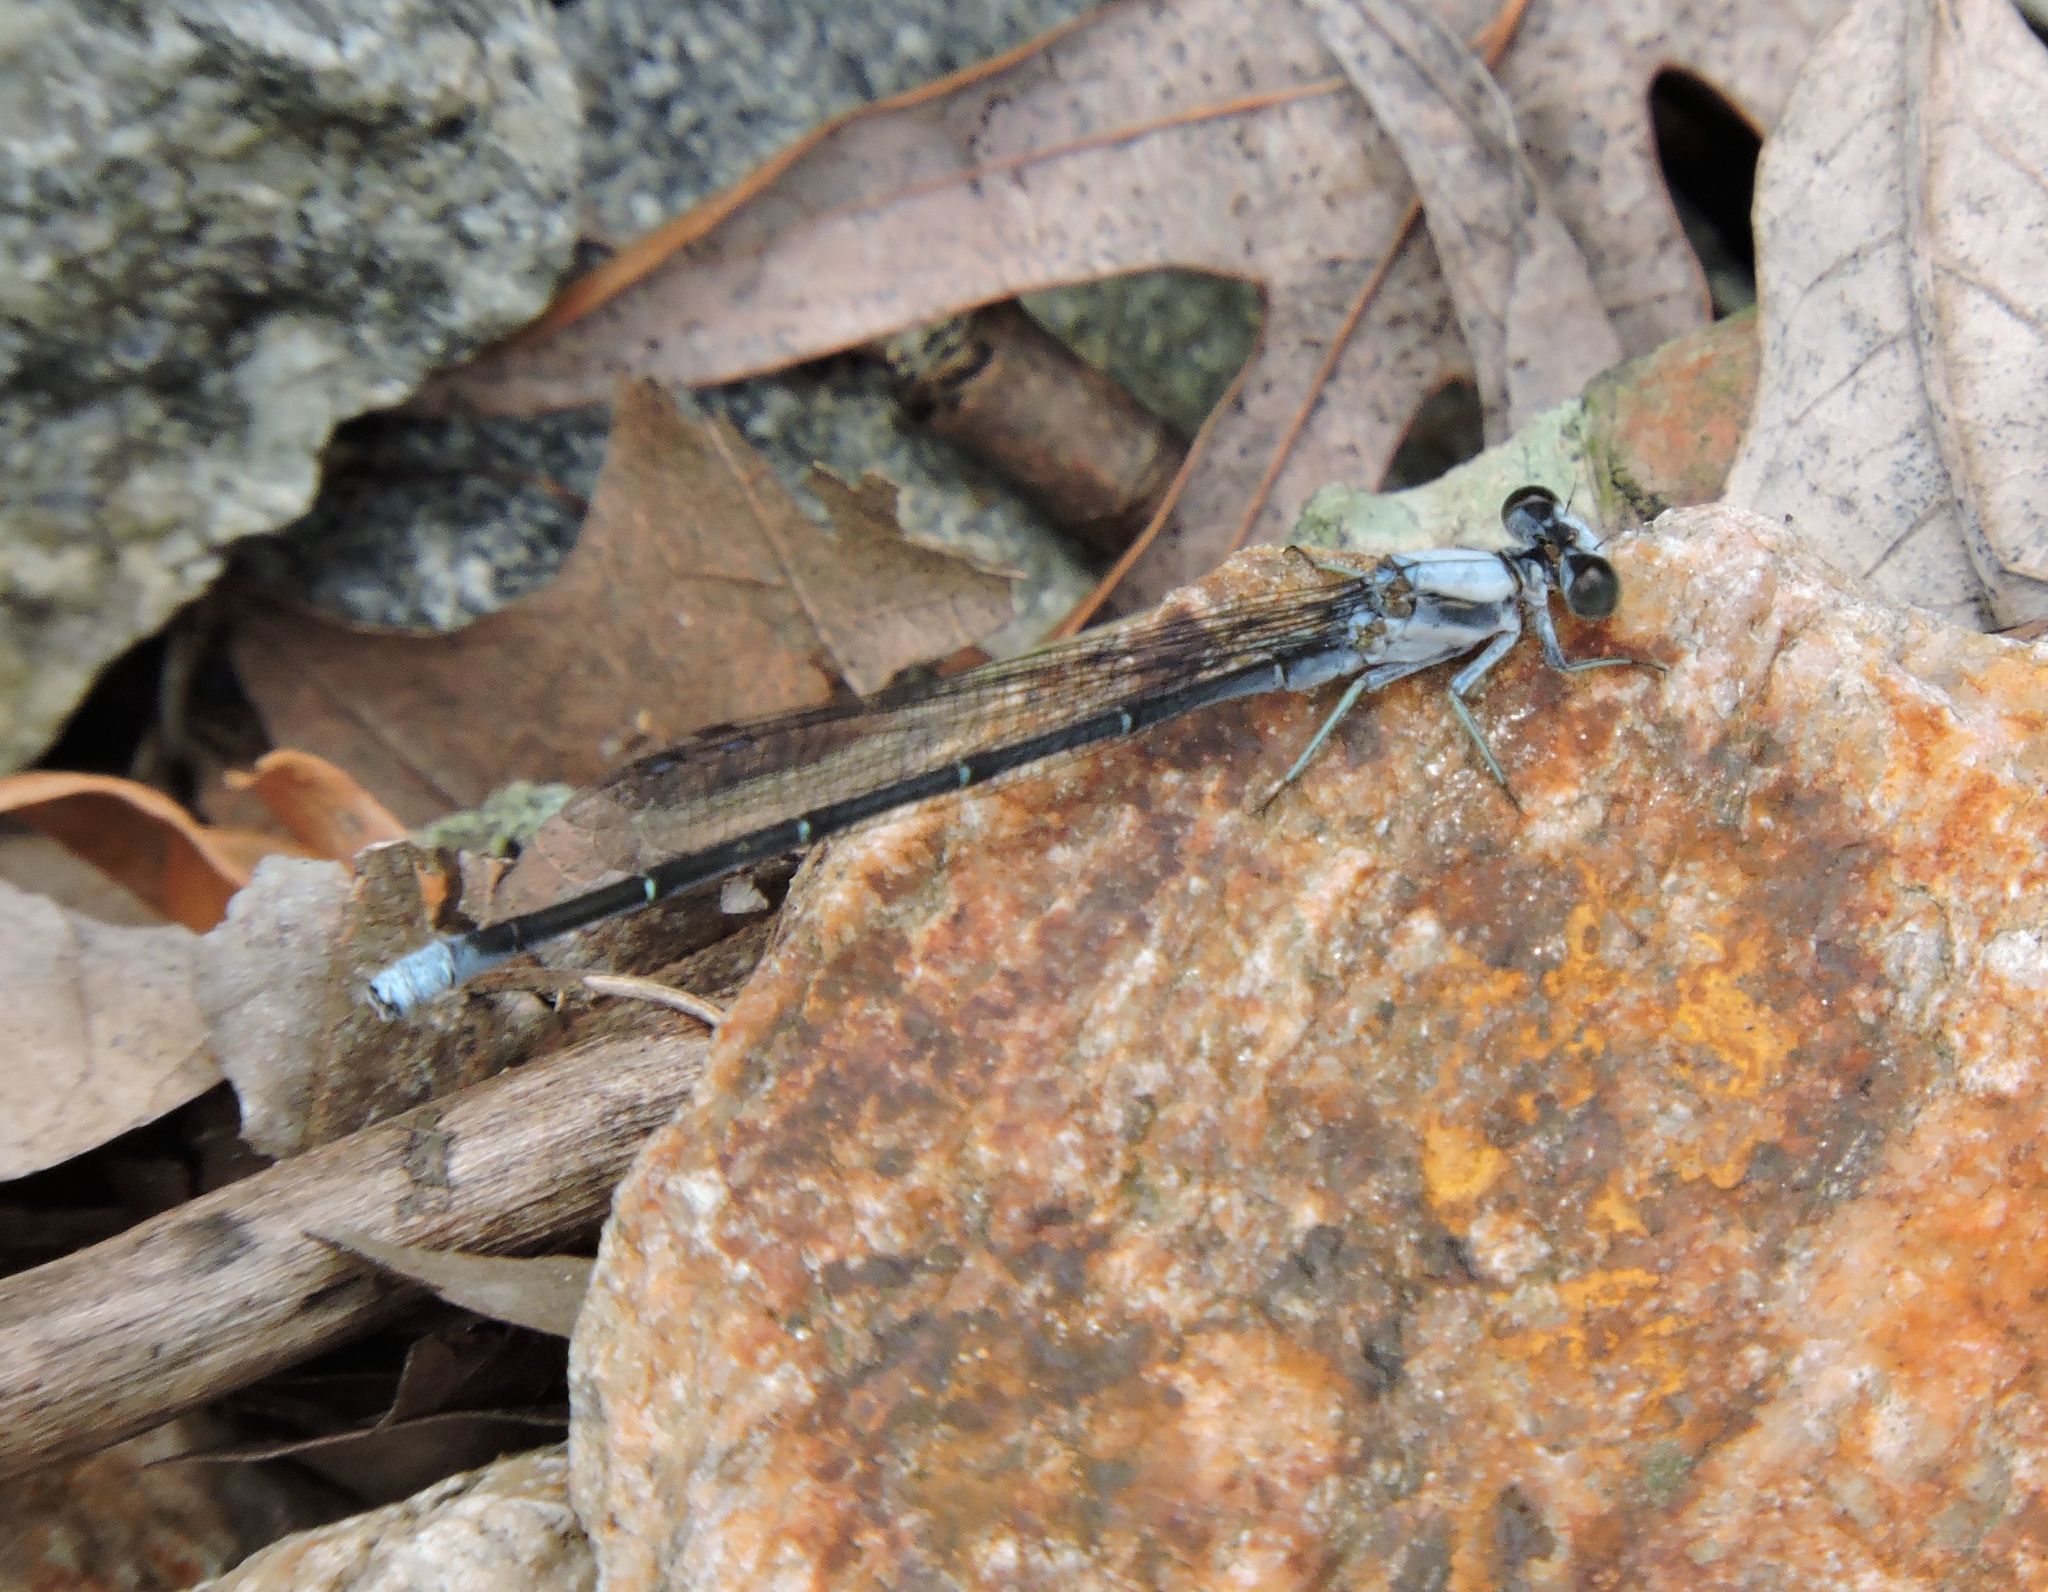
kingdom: Animalia
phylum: Arthropoda
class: Insecta
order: Odonata
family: Coenagrionidae
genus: Argia
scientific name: Argia moesta
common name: Powdered dancer
